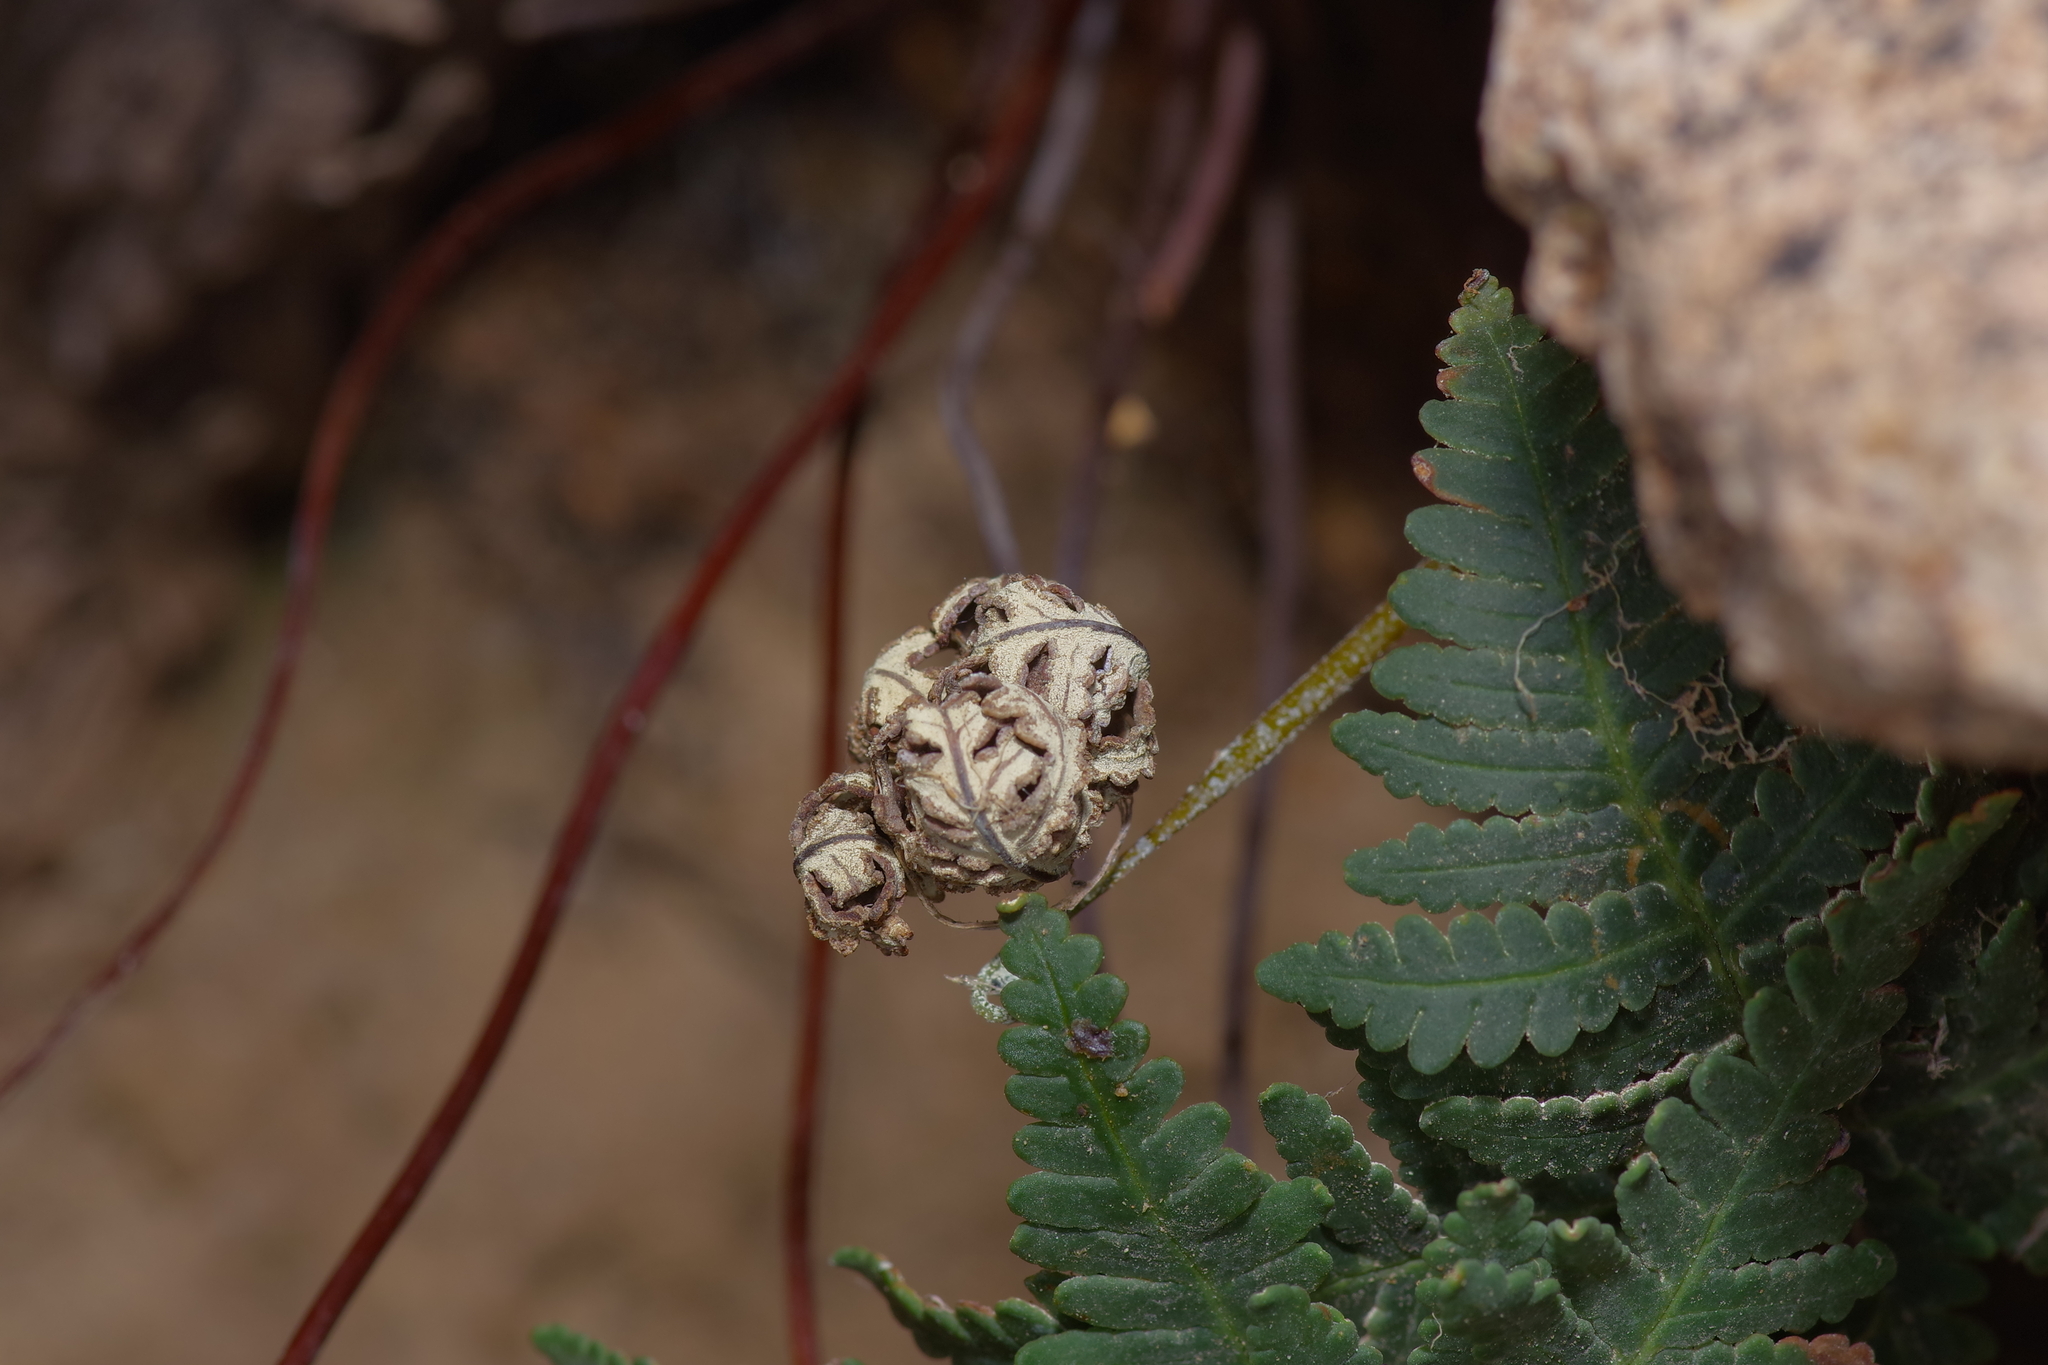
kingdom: Plantae
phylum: Tracheophyta
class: Polypodiopsida
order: Polypodiales
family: Pteridaceae
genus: Notholaena
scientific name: Notholaena standleyi
